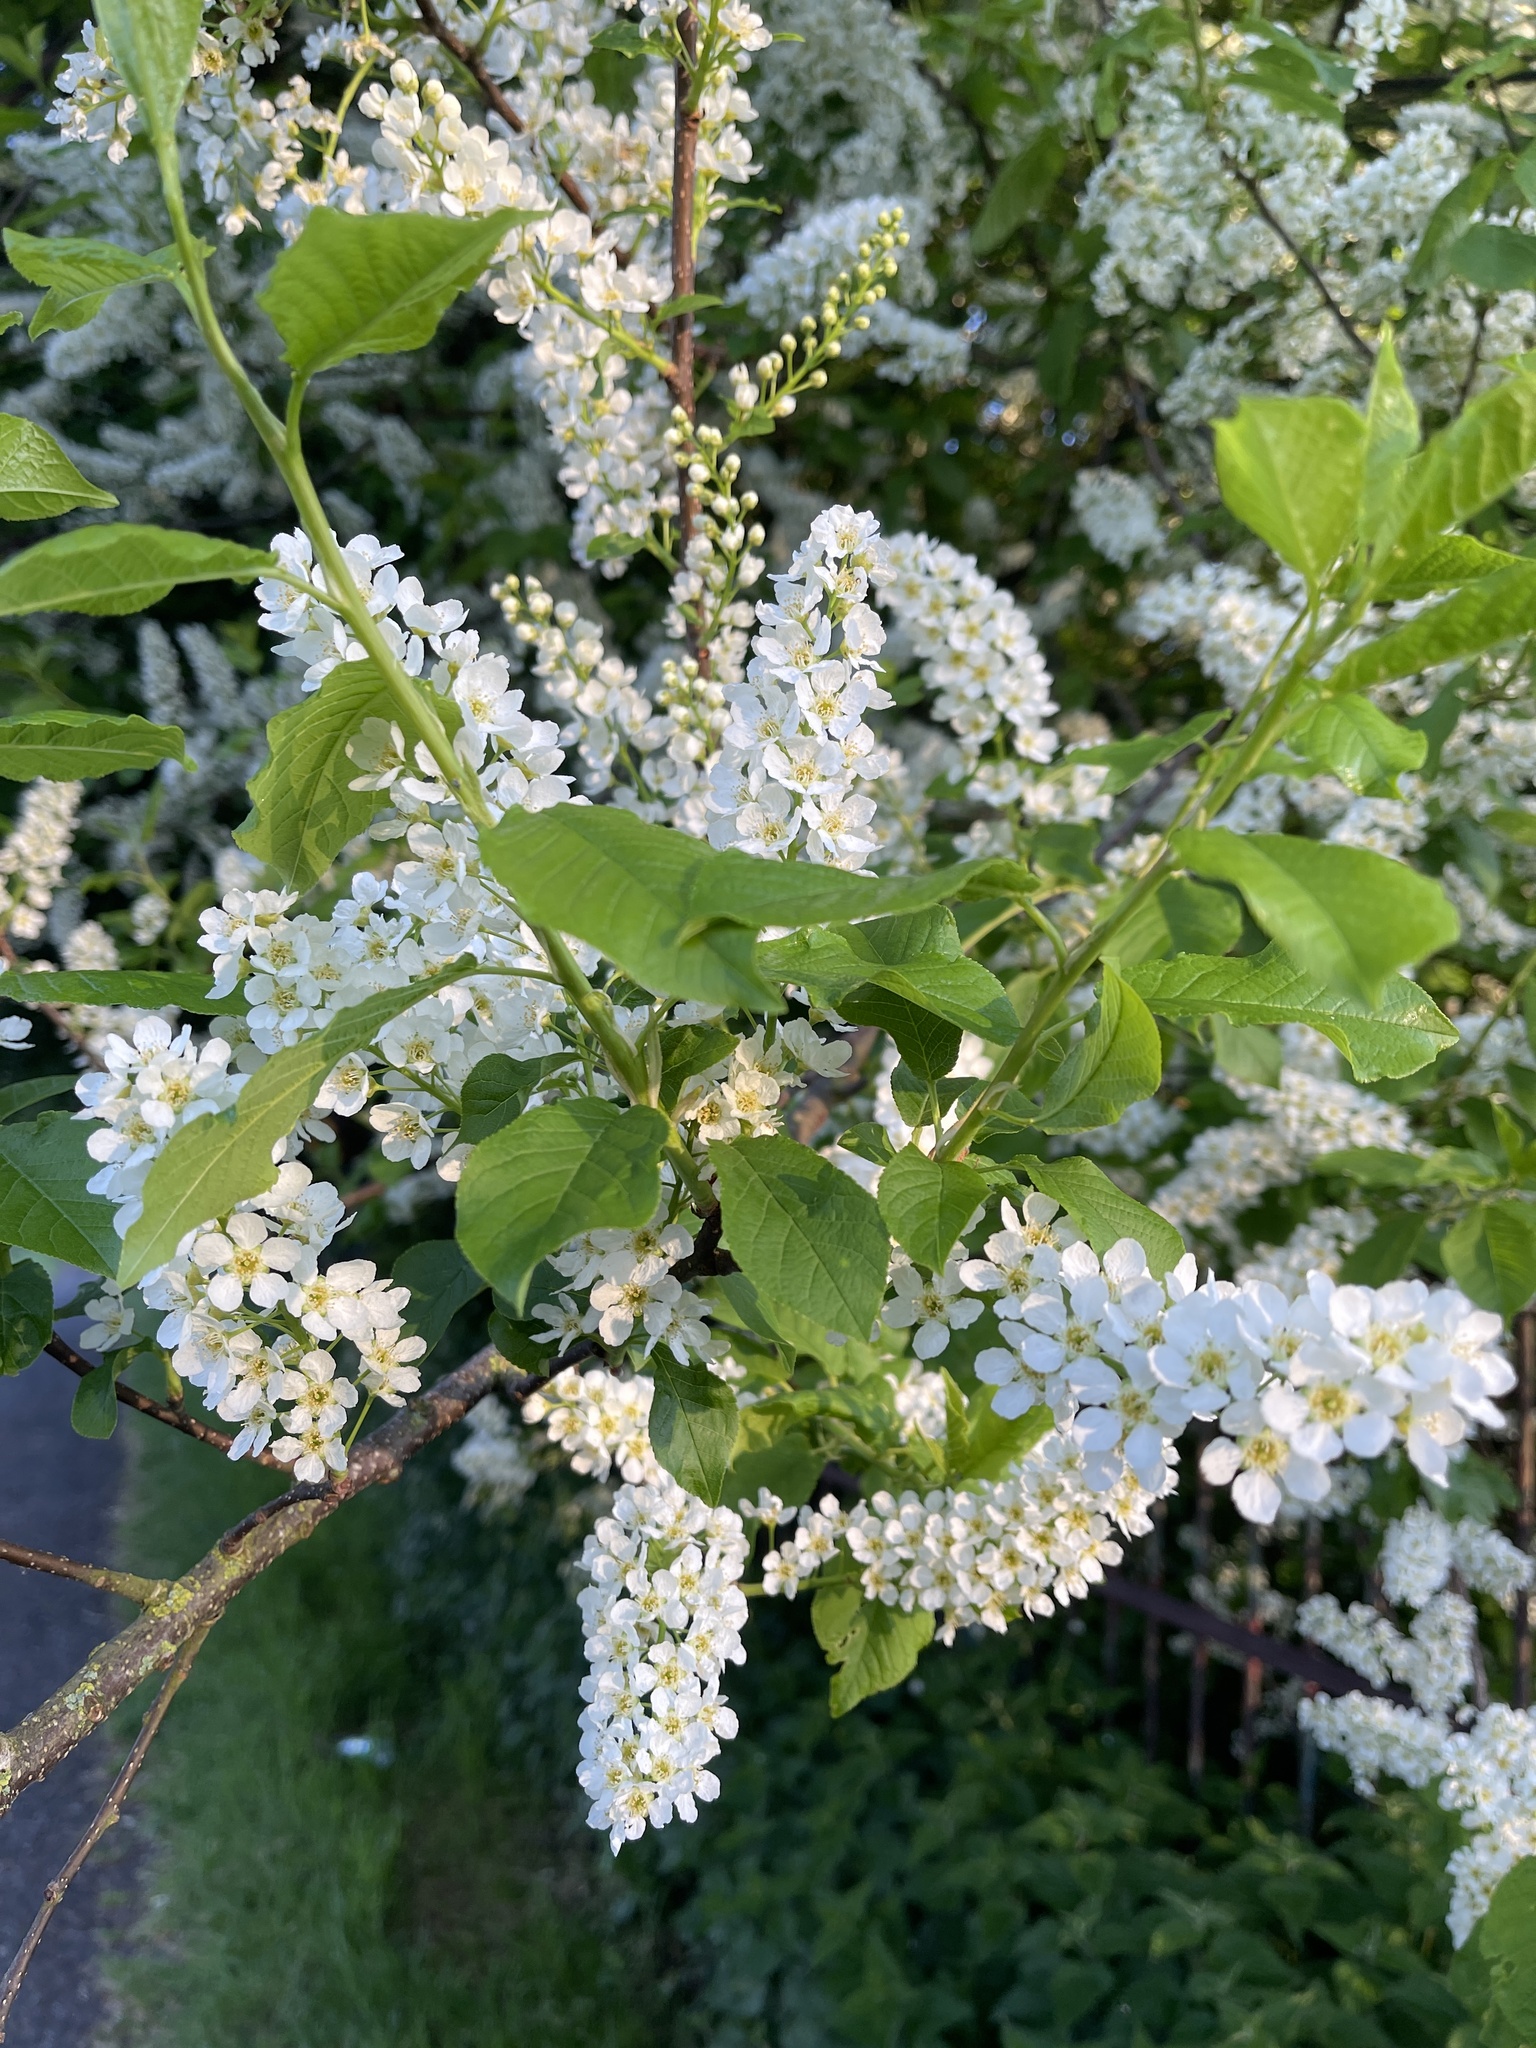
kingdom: Plantae
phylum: Tracheophyta
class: Magnoliopsida
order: Rosales
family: Rosaceae
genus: Prunus
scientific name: Prunus padus
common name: Bird cherry
